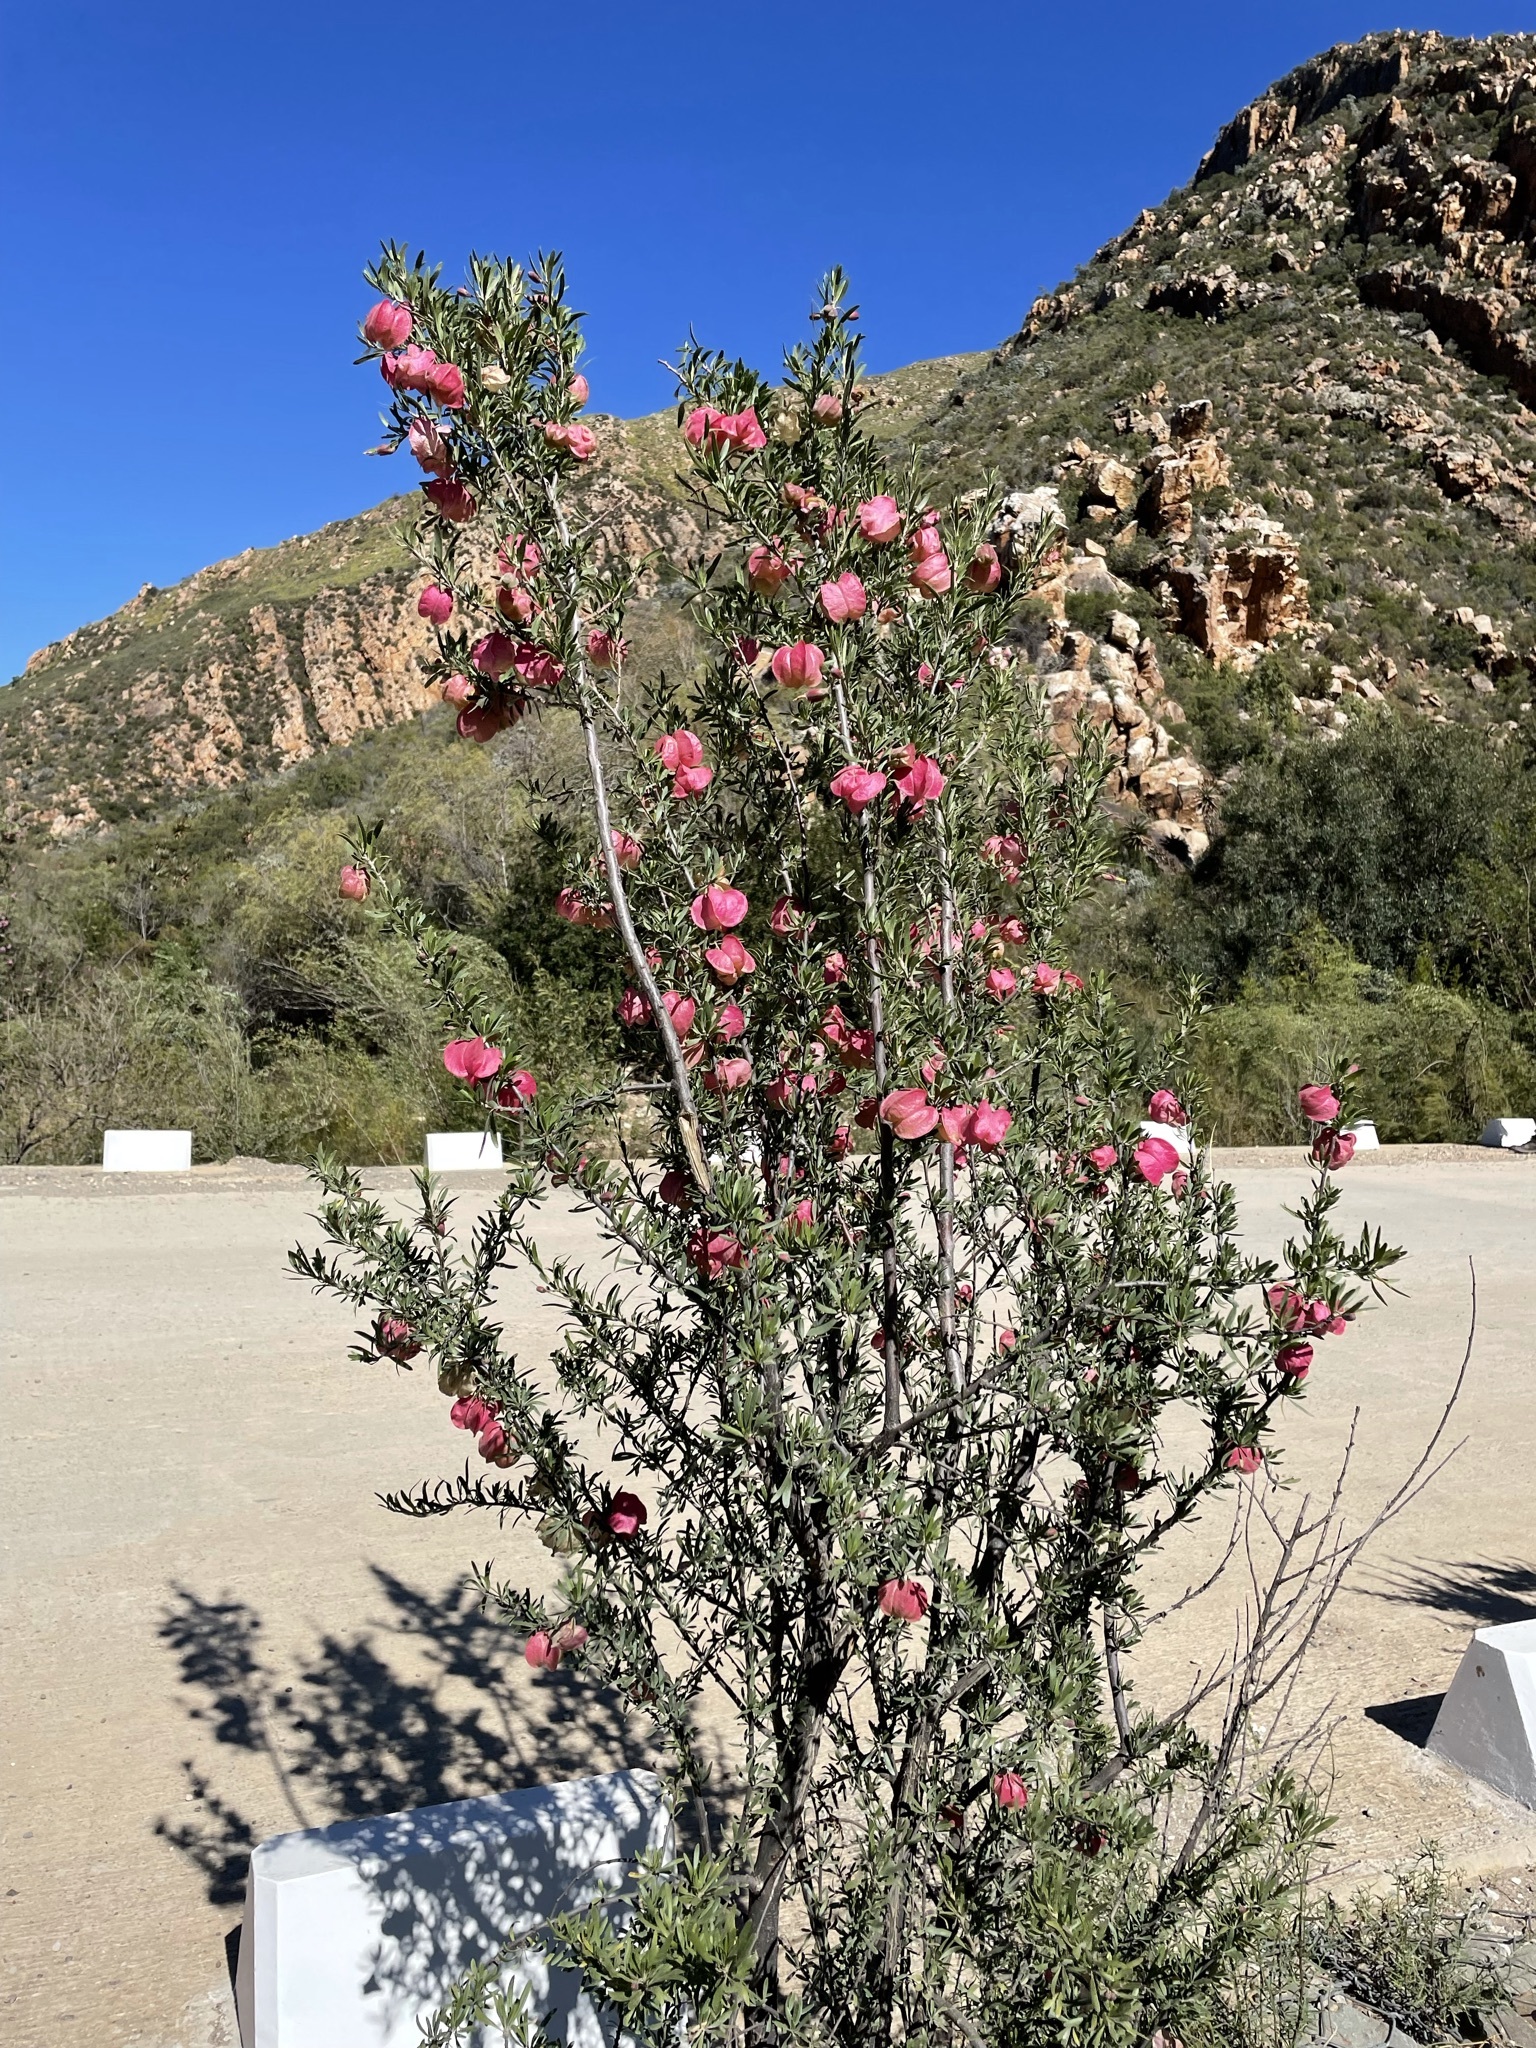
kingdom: Plantae
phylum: Tracheophyta
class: Magnoliopsida
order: Sapindales
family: Meliaceae
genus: Nymania
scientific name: Nymania capensis
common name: Chinese lantern tree
